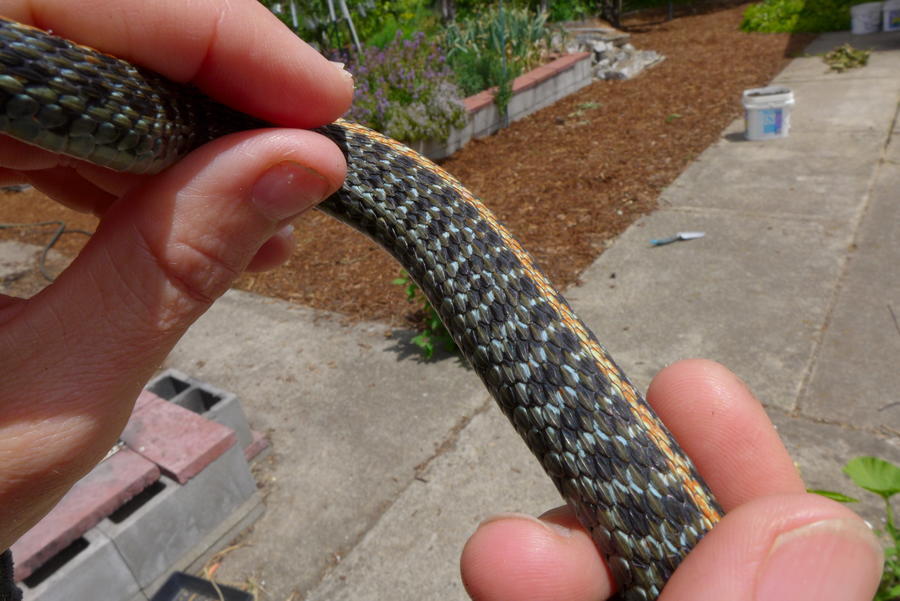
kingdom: Animalia
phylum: Chordata
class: Squamata
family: Colubridae
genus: Thamnophis
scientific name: Thamnophis ordinoides
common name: Northwestern garter snake
